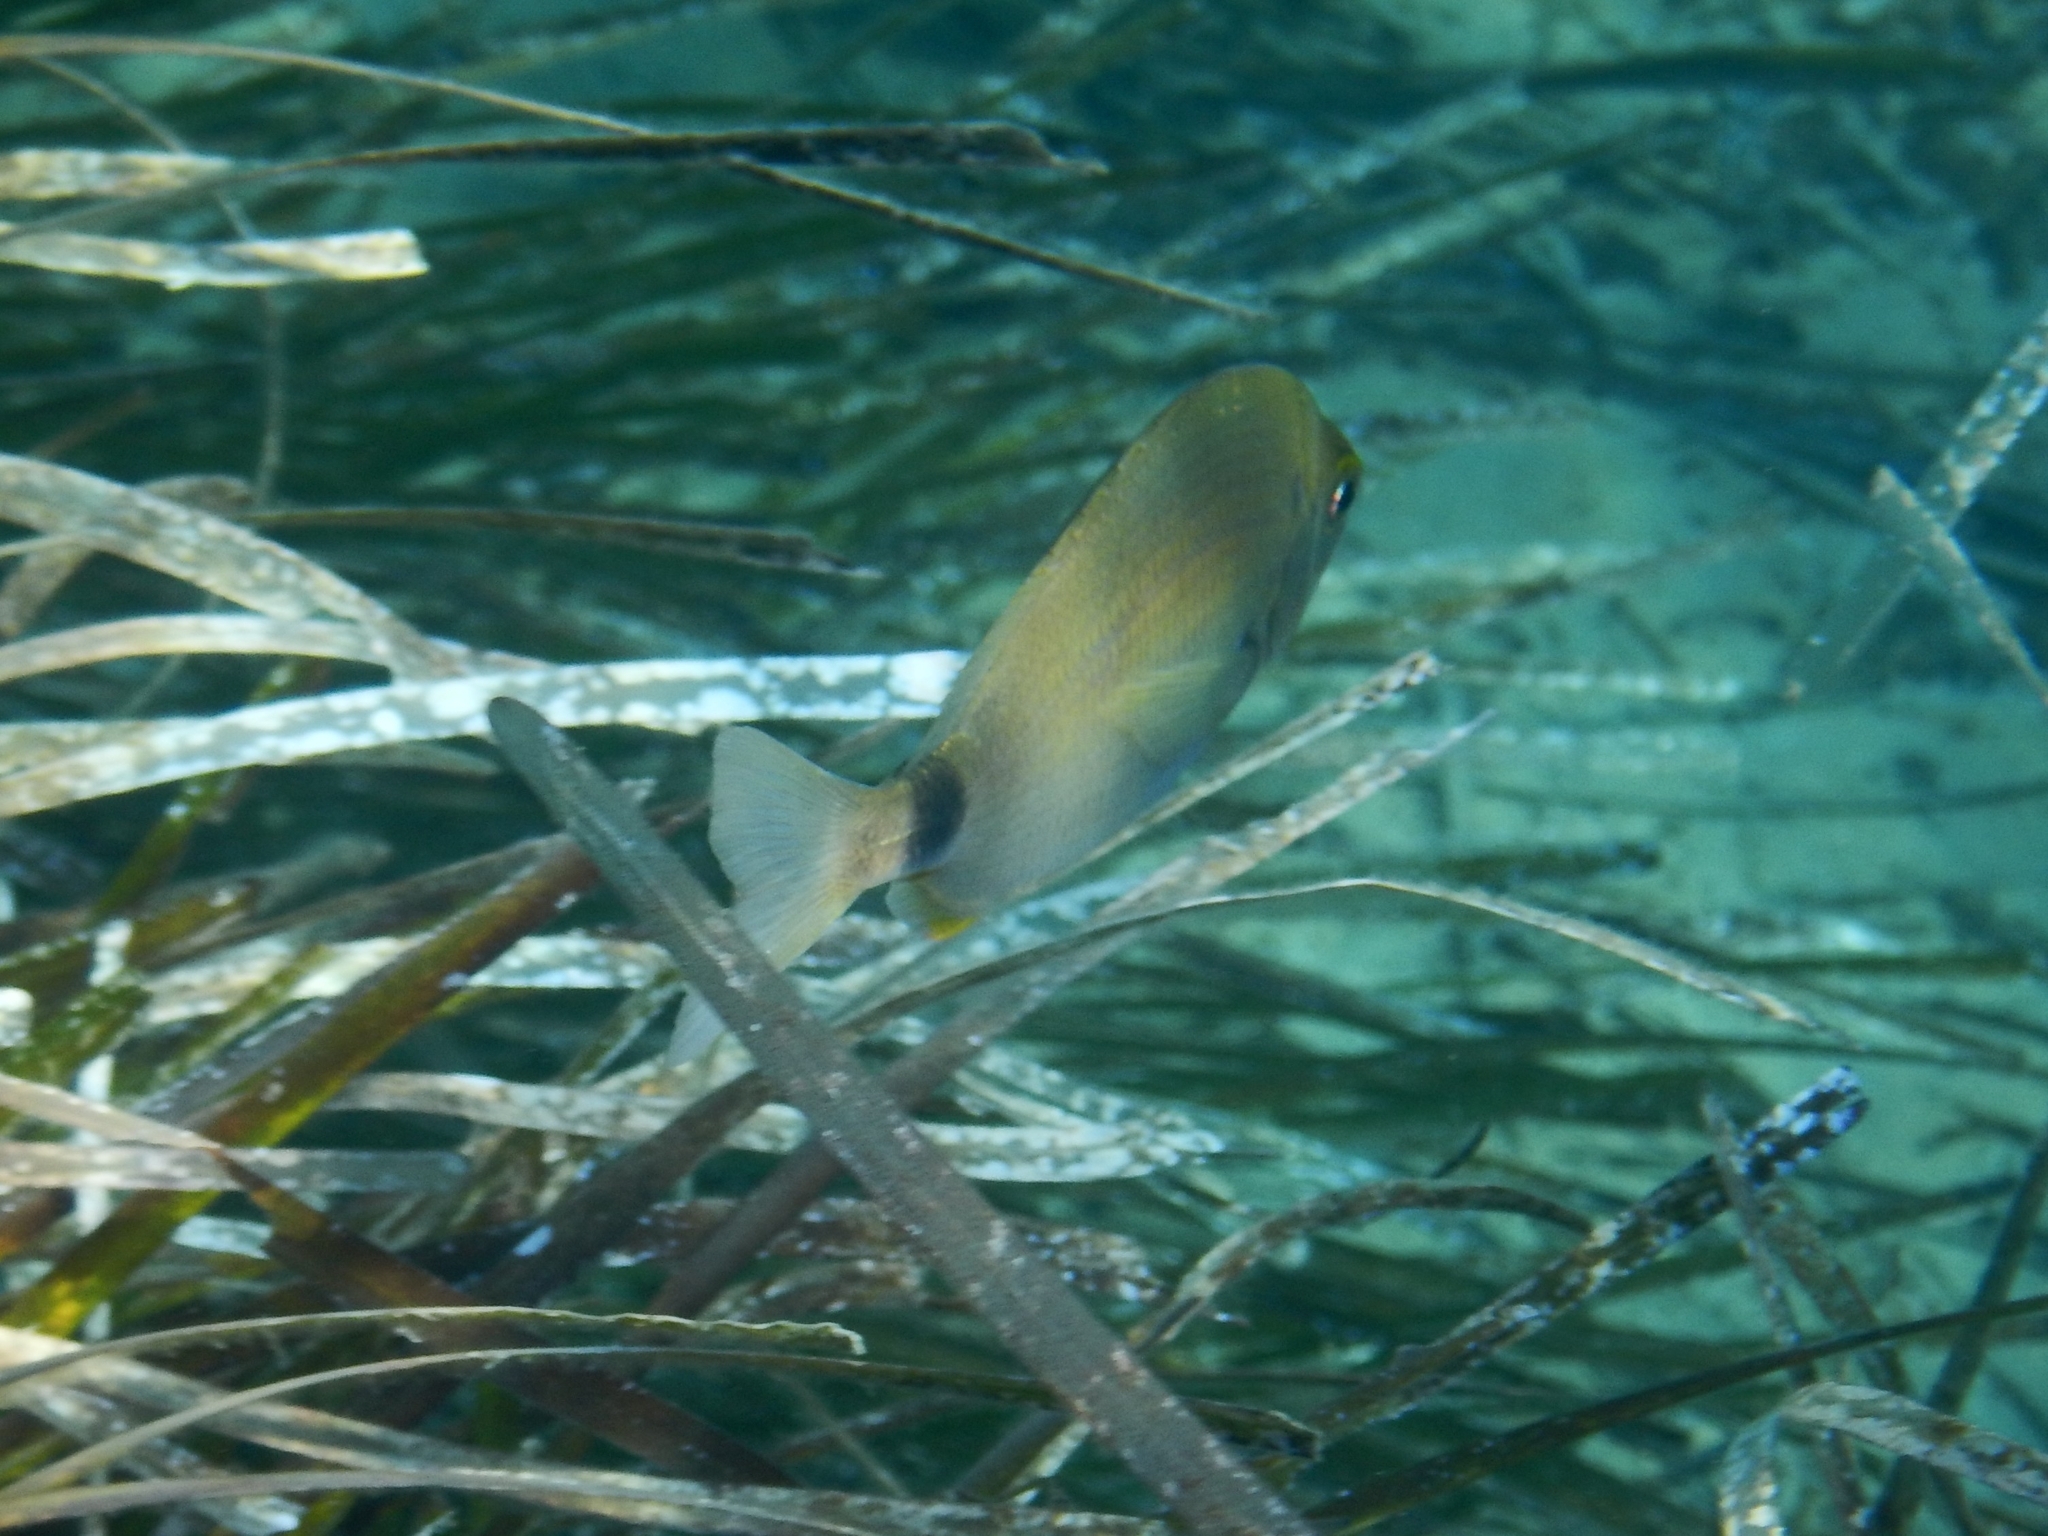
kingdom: Animalia
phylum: Chordata
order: Perciformes
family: Sparidae
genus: Diplodus
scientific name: Diplodus annularis
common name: Annular seabream
